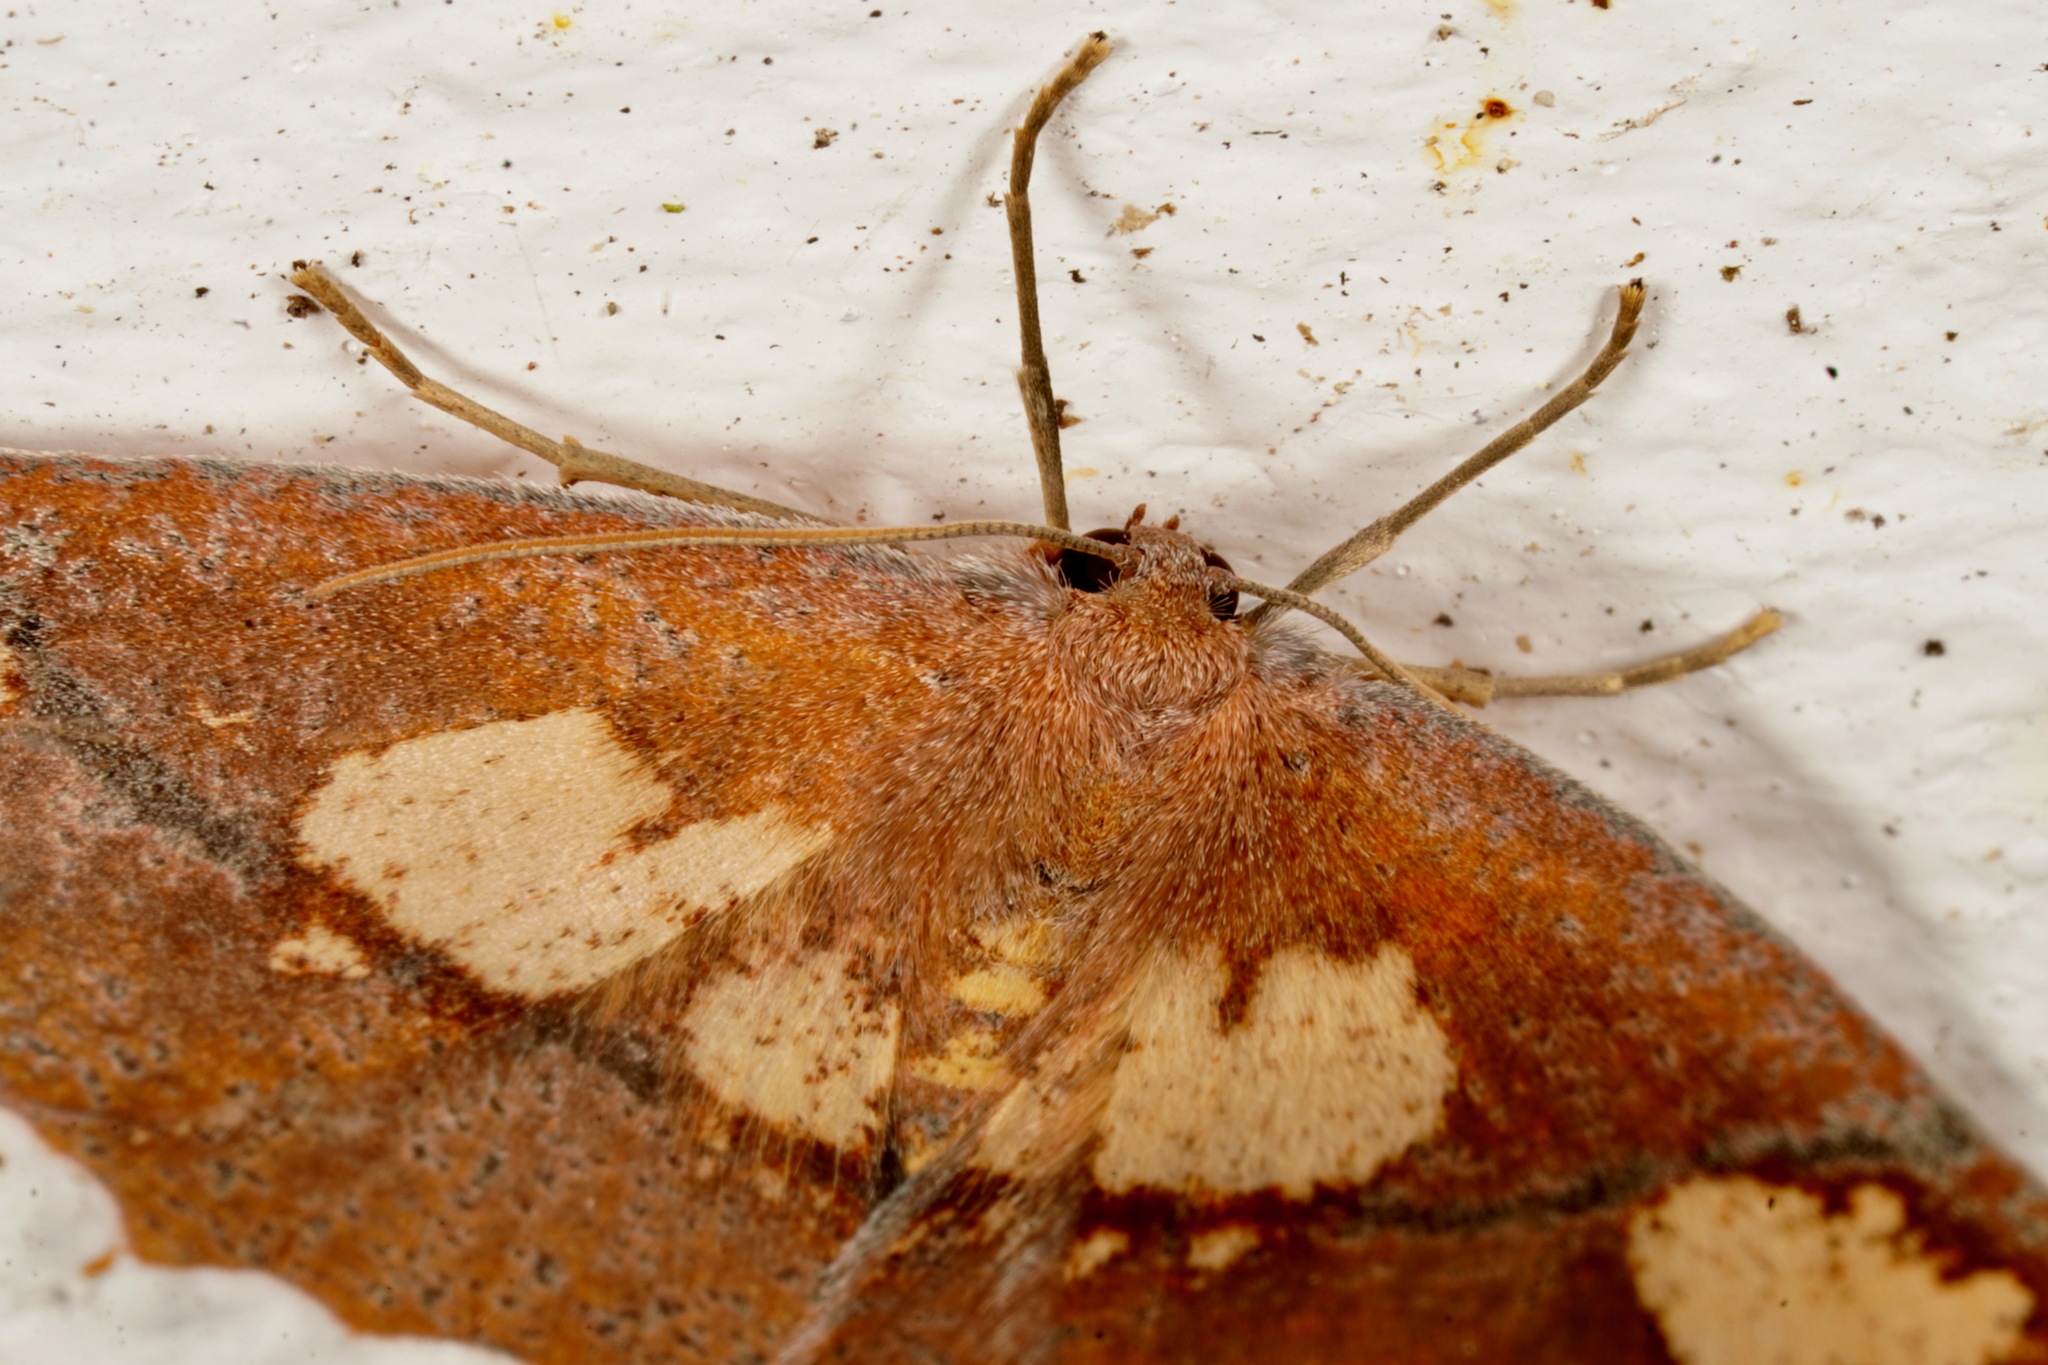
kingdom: Animalia
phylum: Arthropoda
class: Insecta
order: Lepidoptera
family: Geometridae
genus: Xyridacma
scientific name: Xyridacma ustaria
